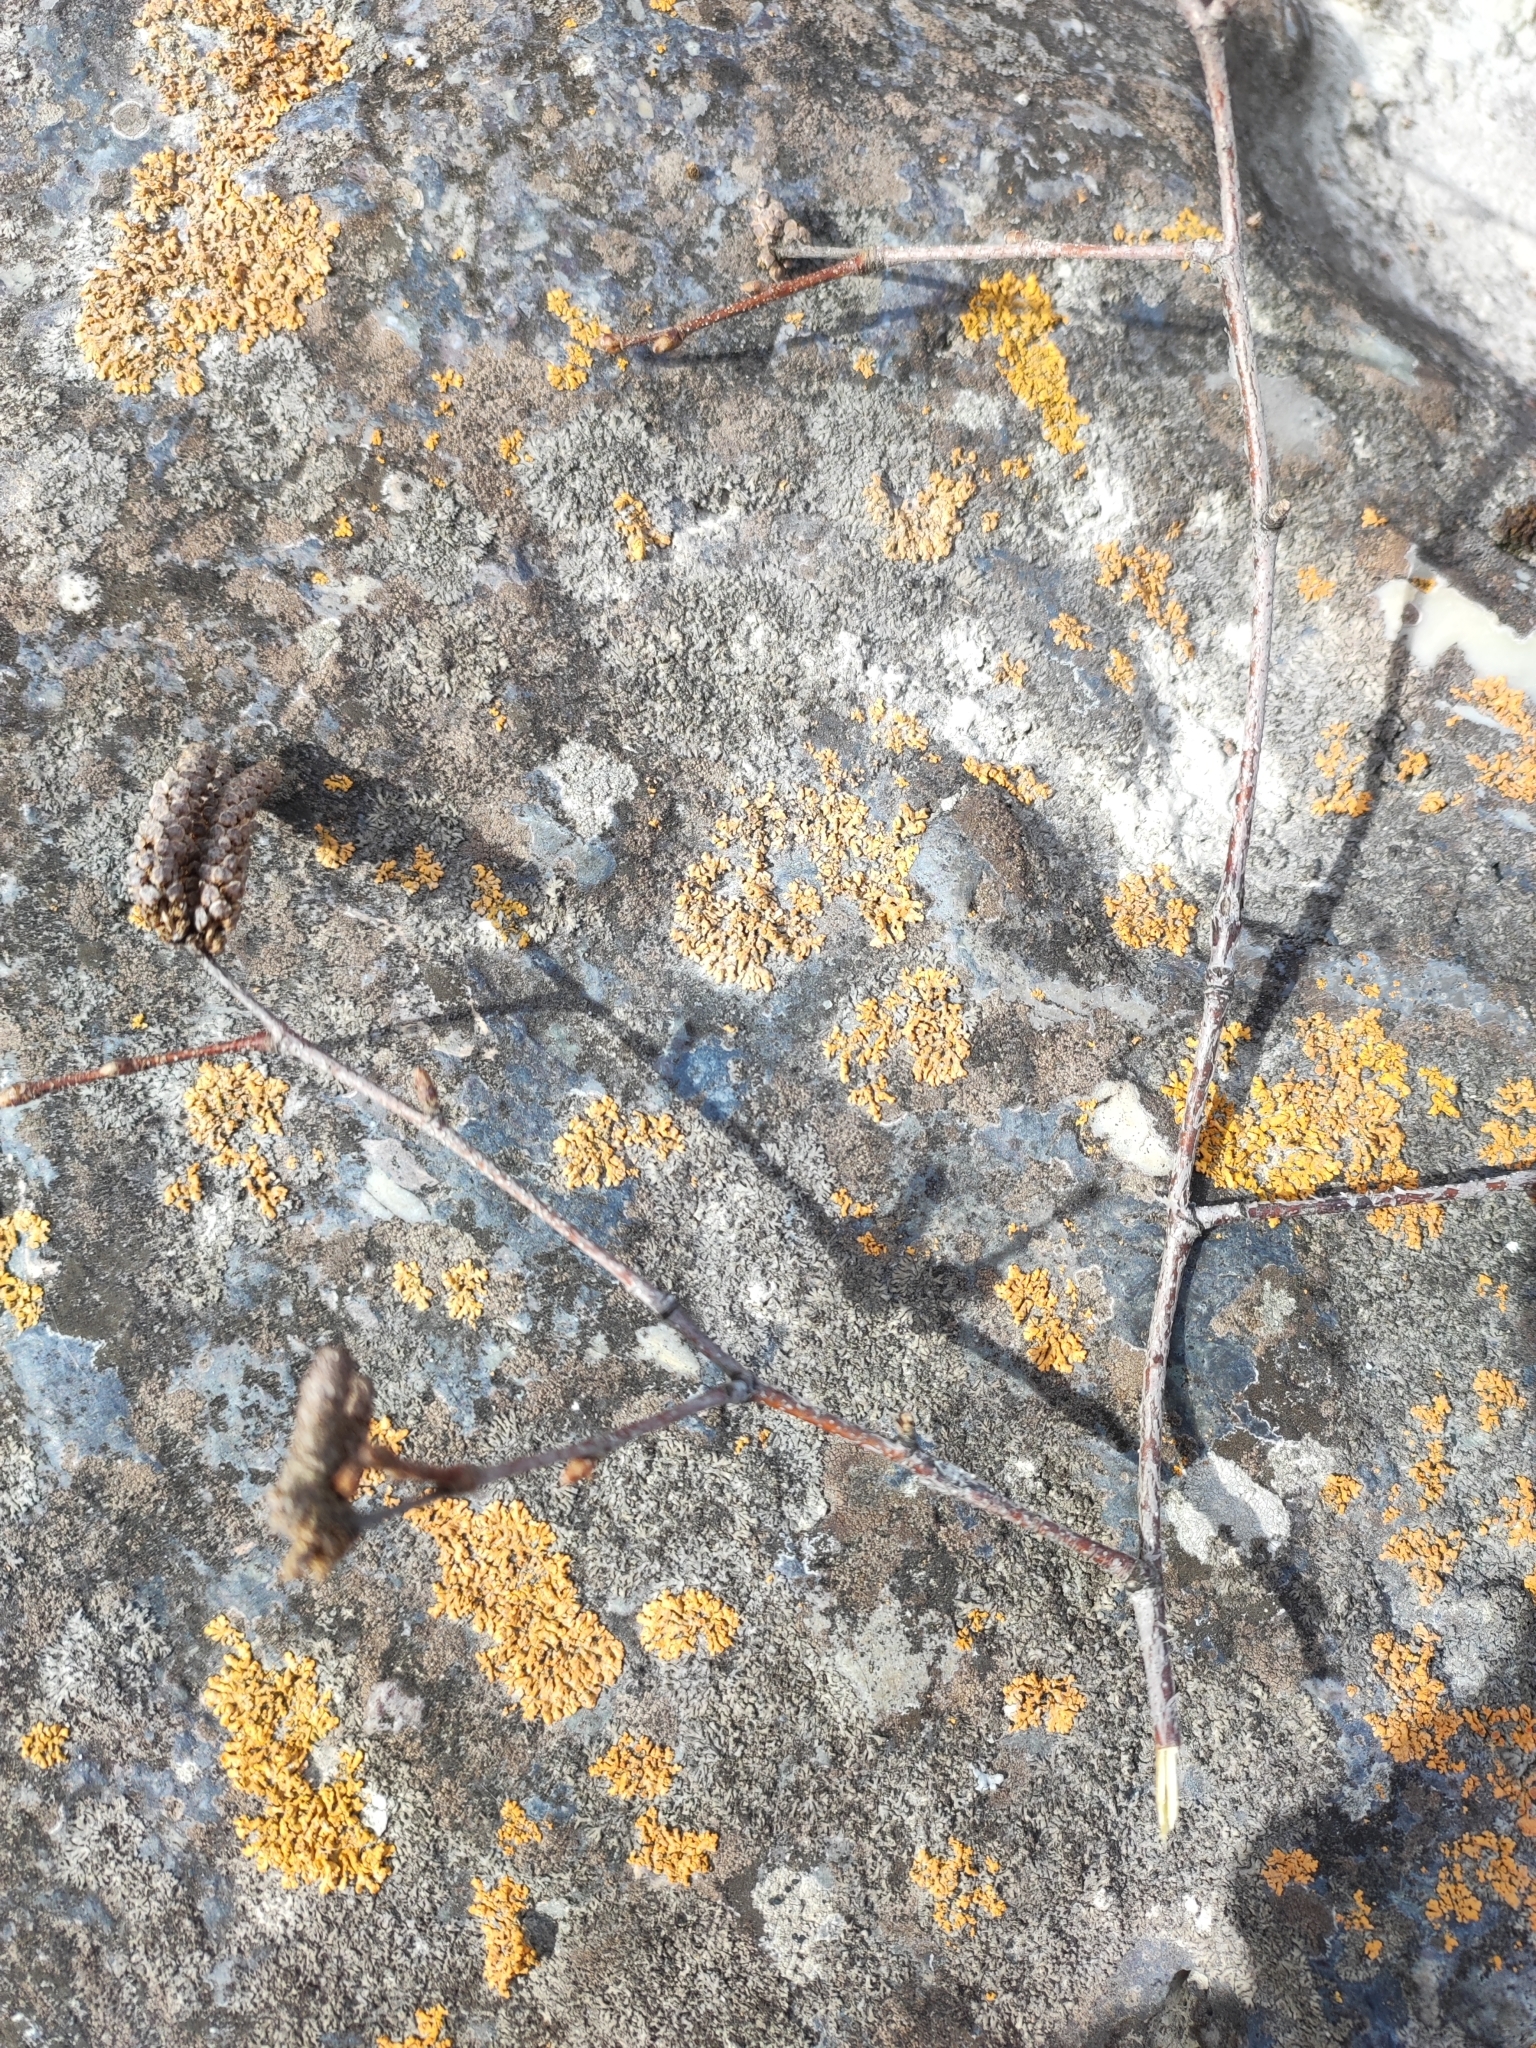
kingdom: Plantae
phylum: Tracheophyta
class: Magnoliopsida
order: Fagales
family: Betulaceae
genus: Betula
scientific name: Betula tianschanica
